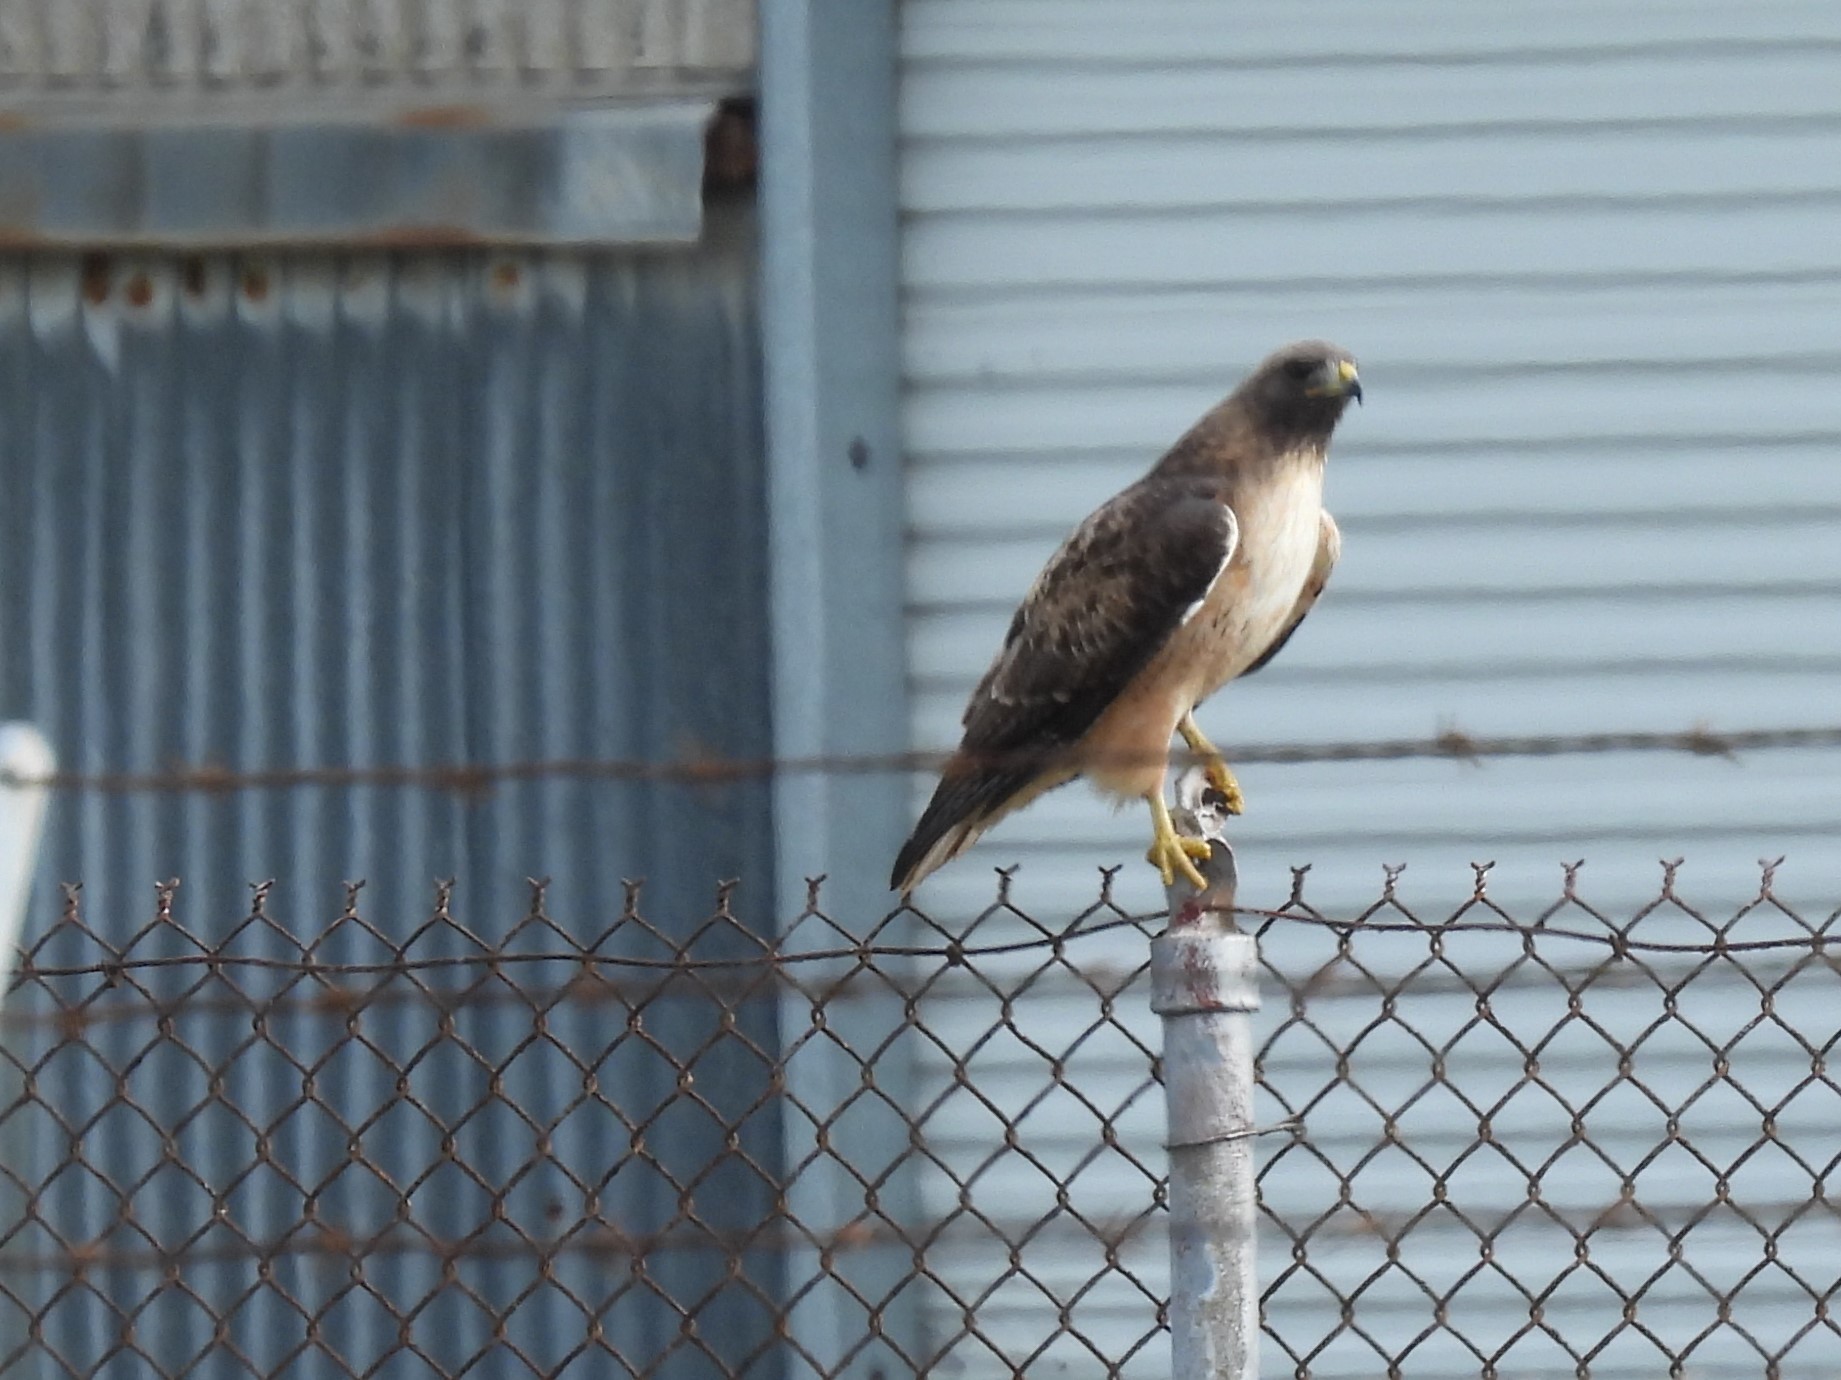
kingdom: Animalia
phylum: Chordata
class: Aves
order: Accipitriformes
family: Accipitridae
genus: Buteo
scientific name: Buteo jamaicensis
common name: Red-tailed hawk
